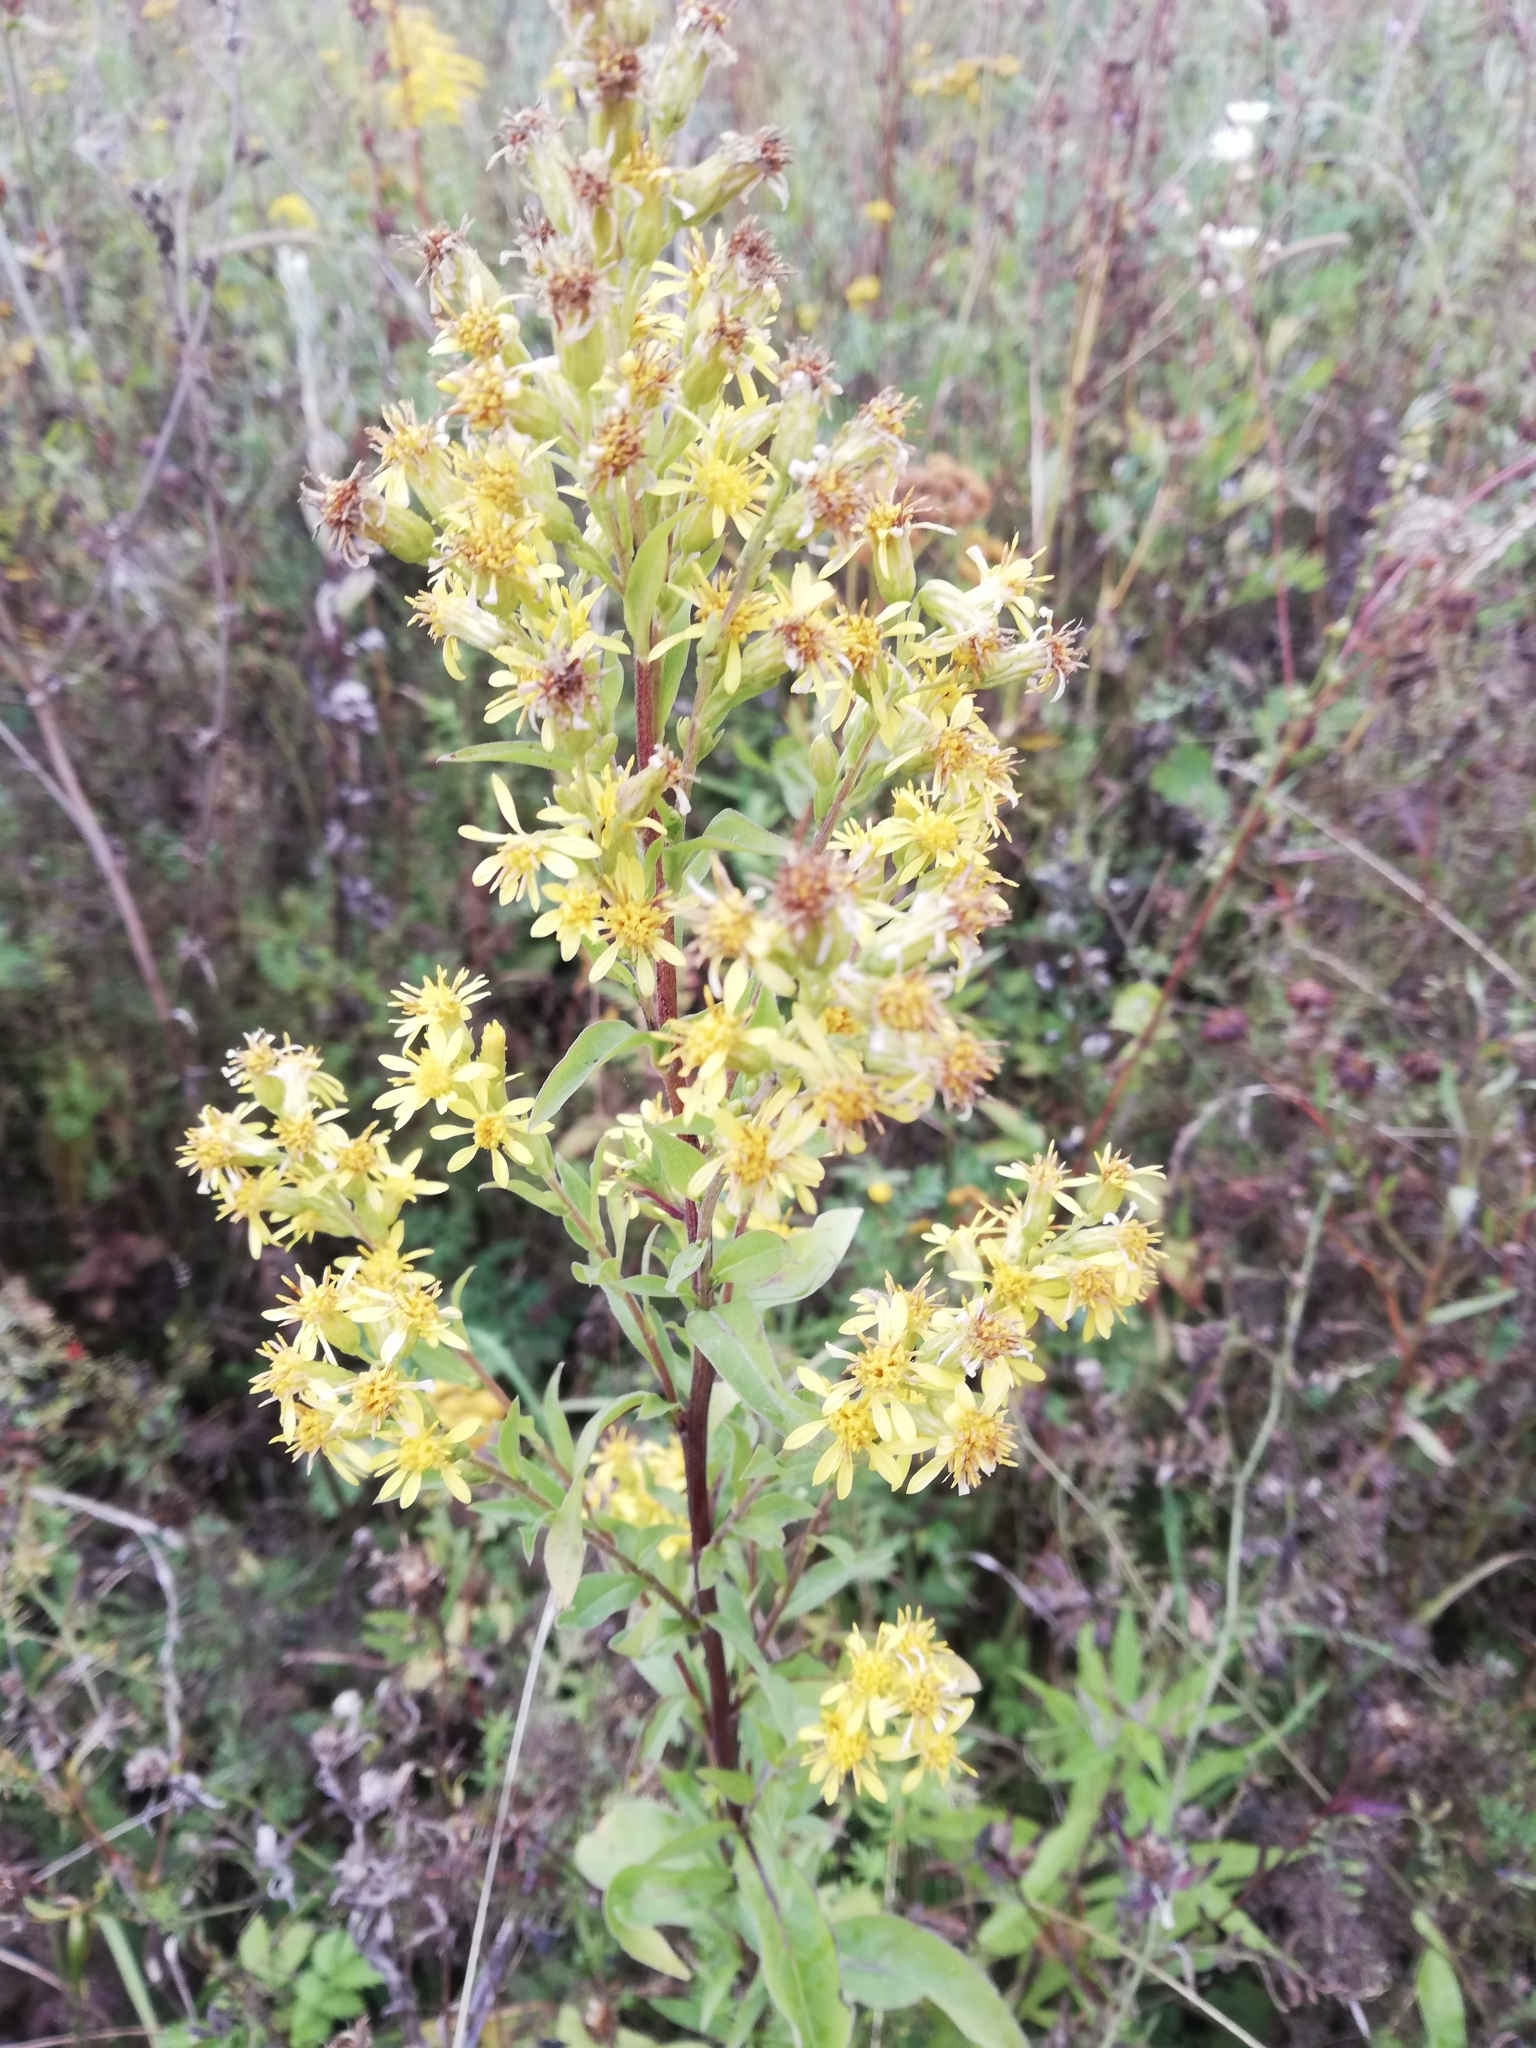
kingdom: Plantae
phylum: Tracheophyta
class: Magnoliopsida
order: Asterales
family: Asteraceae
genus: Solidago
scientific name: Solidago virgaurea
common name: Goldenrod
